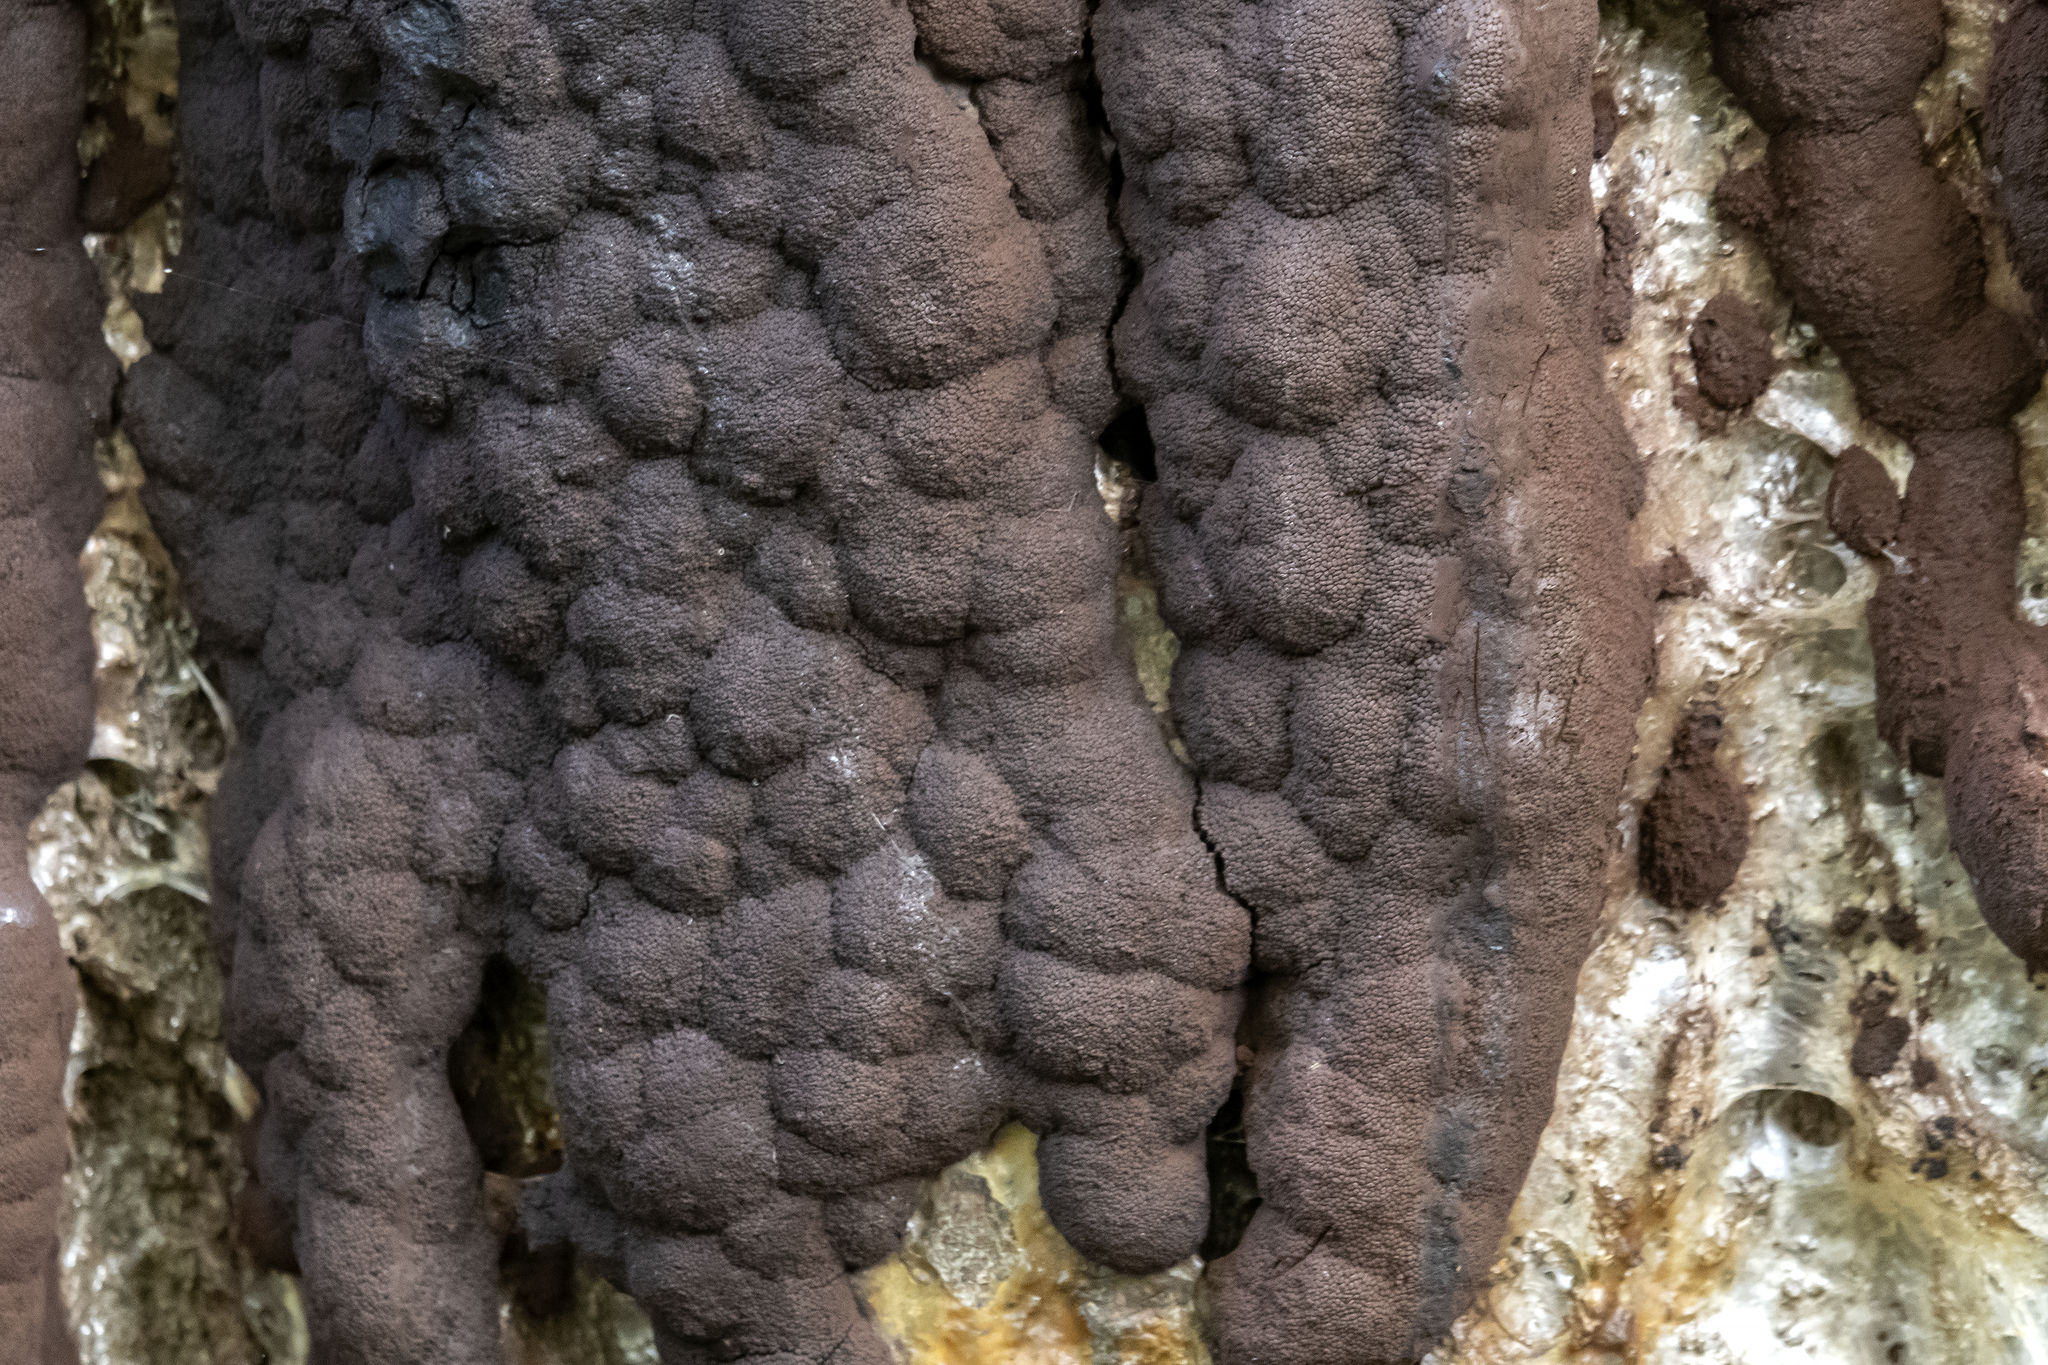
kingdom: Protozoa
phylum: Mycetozoa
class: Myxomycetes
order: Stemonitidales
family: Stemonitidaceae
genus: Brefeldia
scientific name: Brefeldia maxima
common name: Tapioca slime mold
